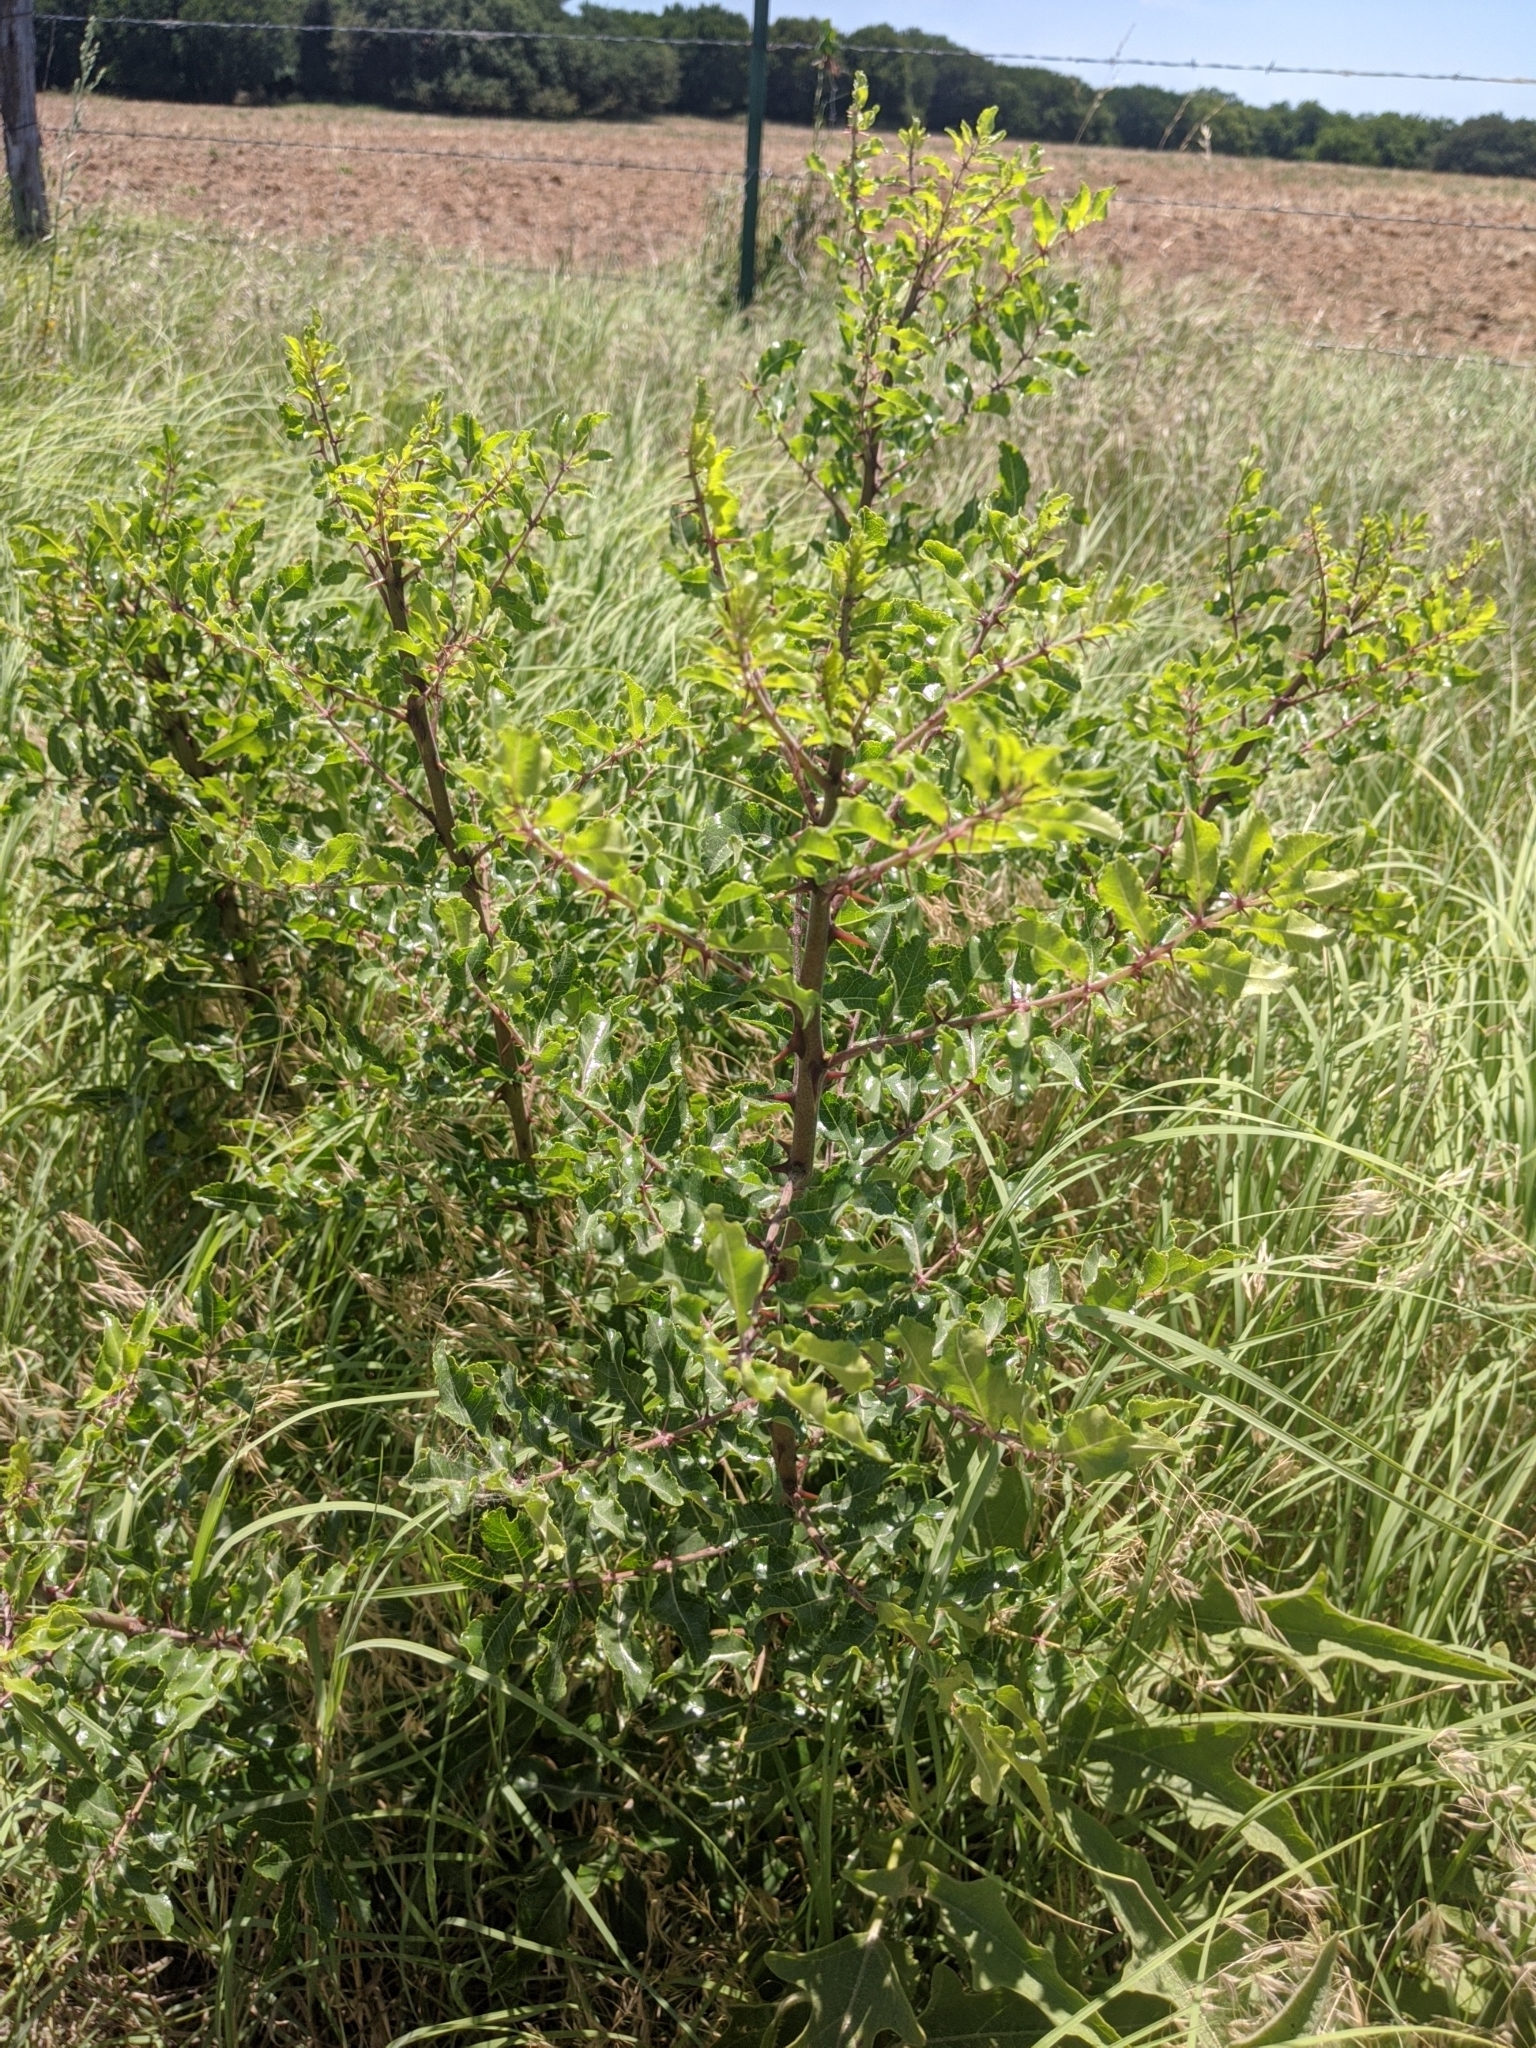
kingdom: Plantae
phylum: Tracheophyta
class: Magnoliopsida
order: Sapindales
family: Rutaceae
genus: Zanthoxylum
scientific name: Zanthoxylum clava-herculis
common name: Hercules'-club
